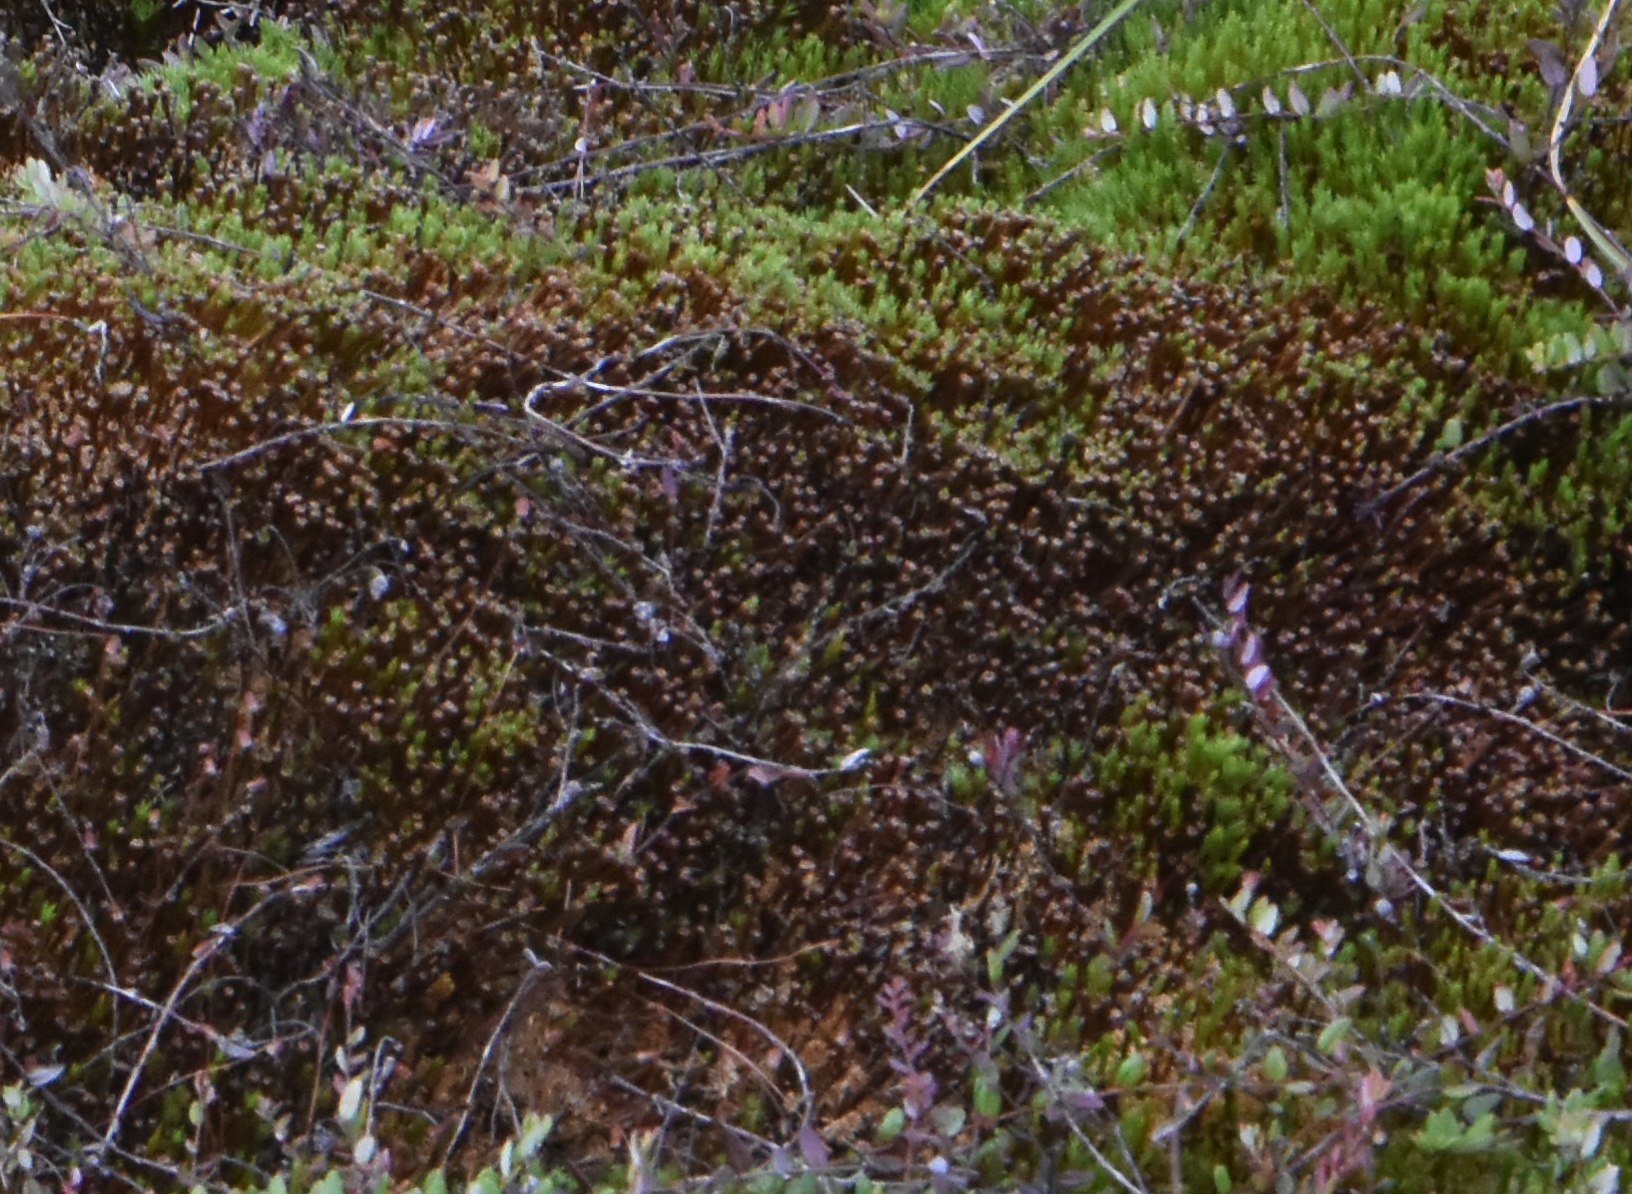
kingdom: Plantae
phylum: Bryophyta
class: Polytrichopsida
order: Polytrichales
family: Polytrichaceae
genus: Polytrichum
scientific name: Polytrichum strictum
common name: Bog haircap moss
